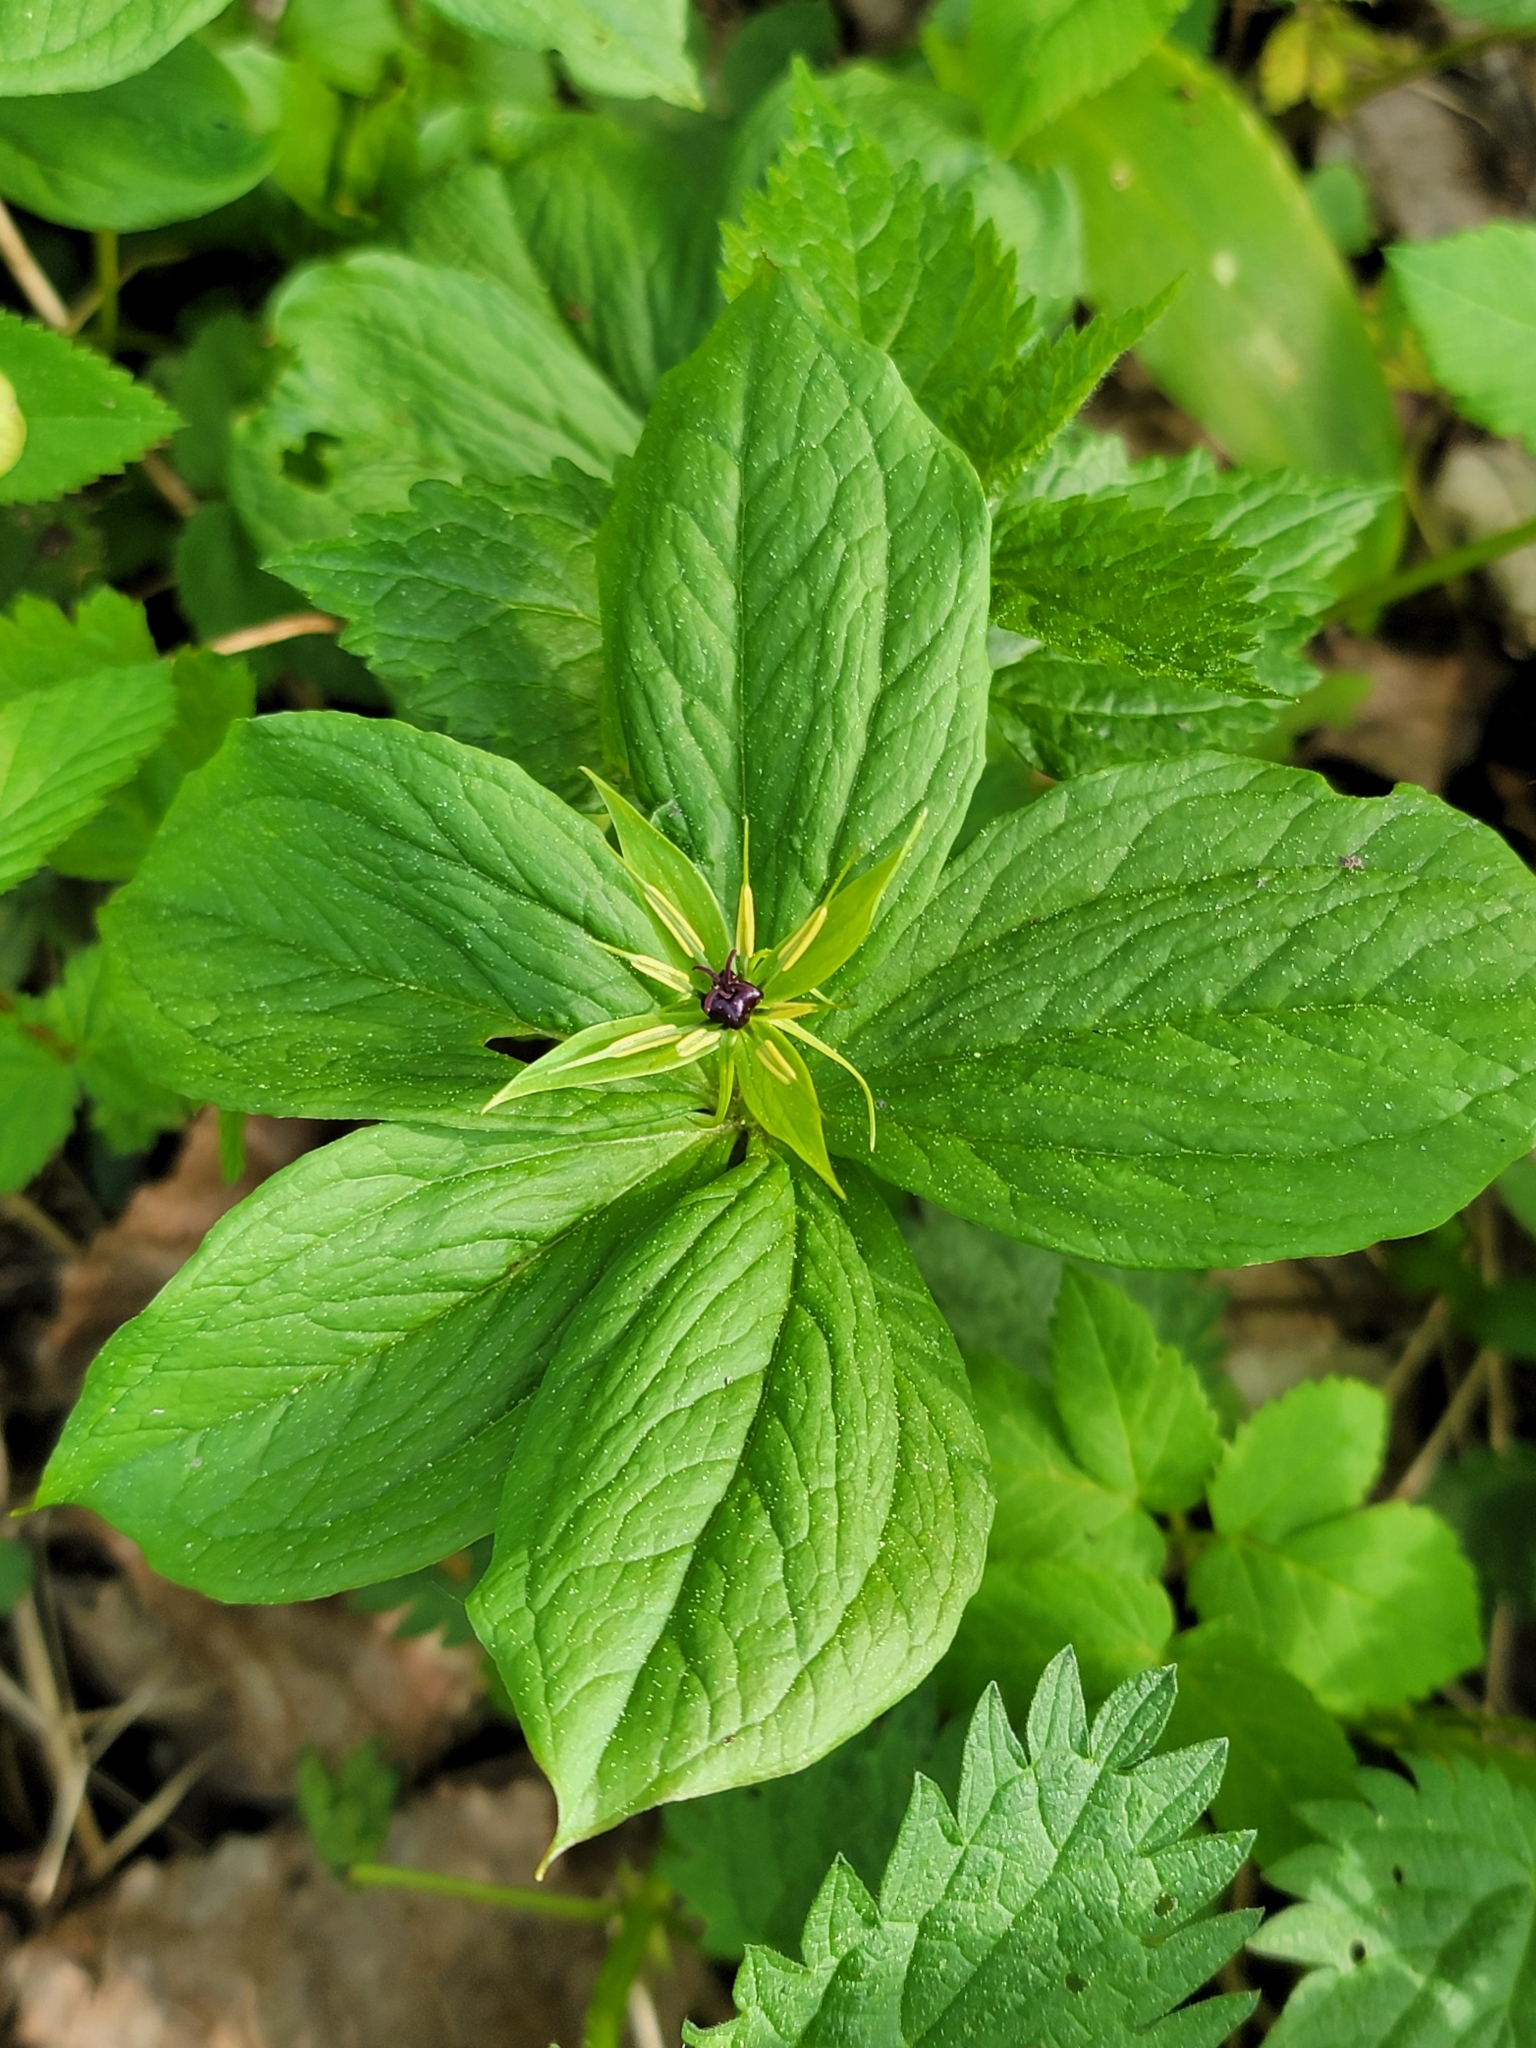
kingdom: Plantae
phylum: Tracheophyta
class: Liliopsida
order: Liliales
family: Melanthiaceae
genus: Paris
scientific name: Paris quadrifolia
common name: Herb-paris
